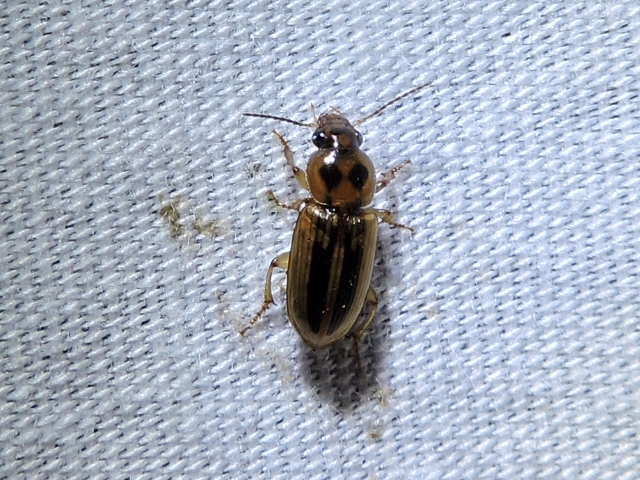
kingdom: Animalia
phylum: Arthropoda
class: Insecta
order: Coleoptera
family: Carabidae
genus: Stenolophus
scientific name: Stenolophus binotatus
